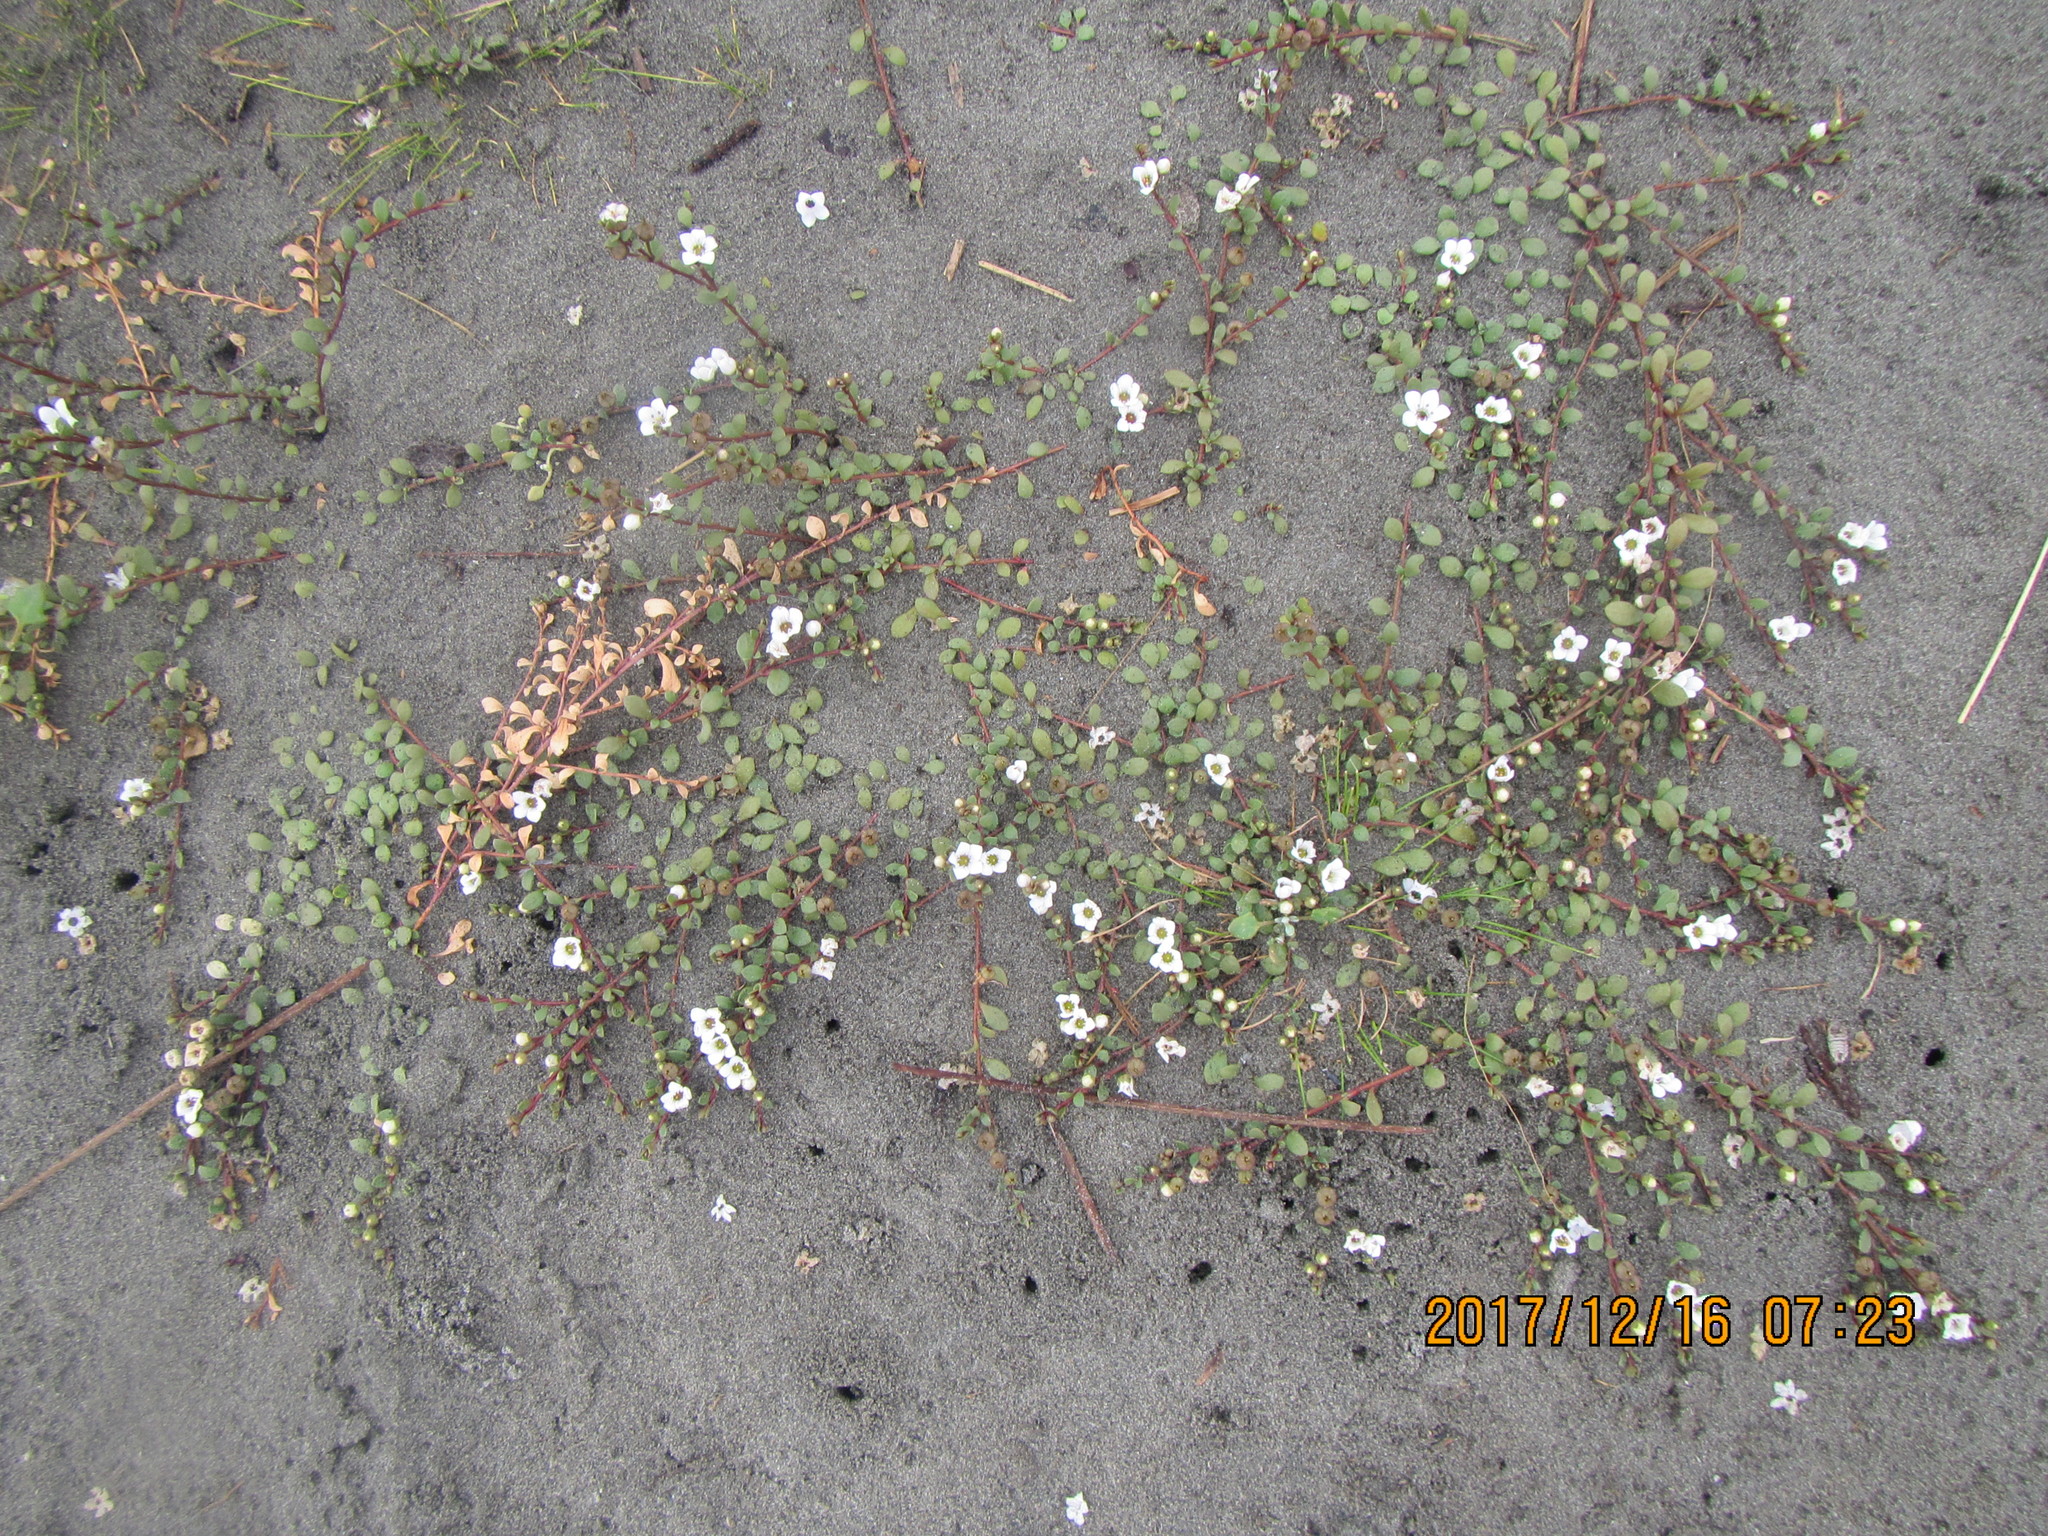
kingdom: Plantae
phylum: Tracheophyta
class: Magnoliopsida
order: Ericales
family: Primulaceae
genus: Samolus
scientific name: Samolus repens
